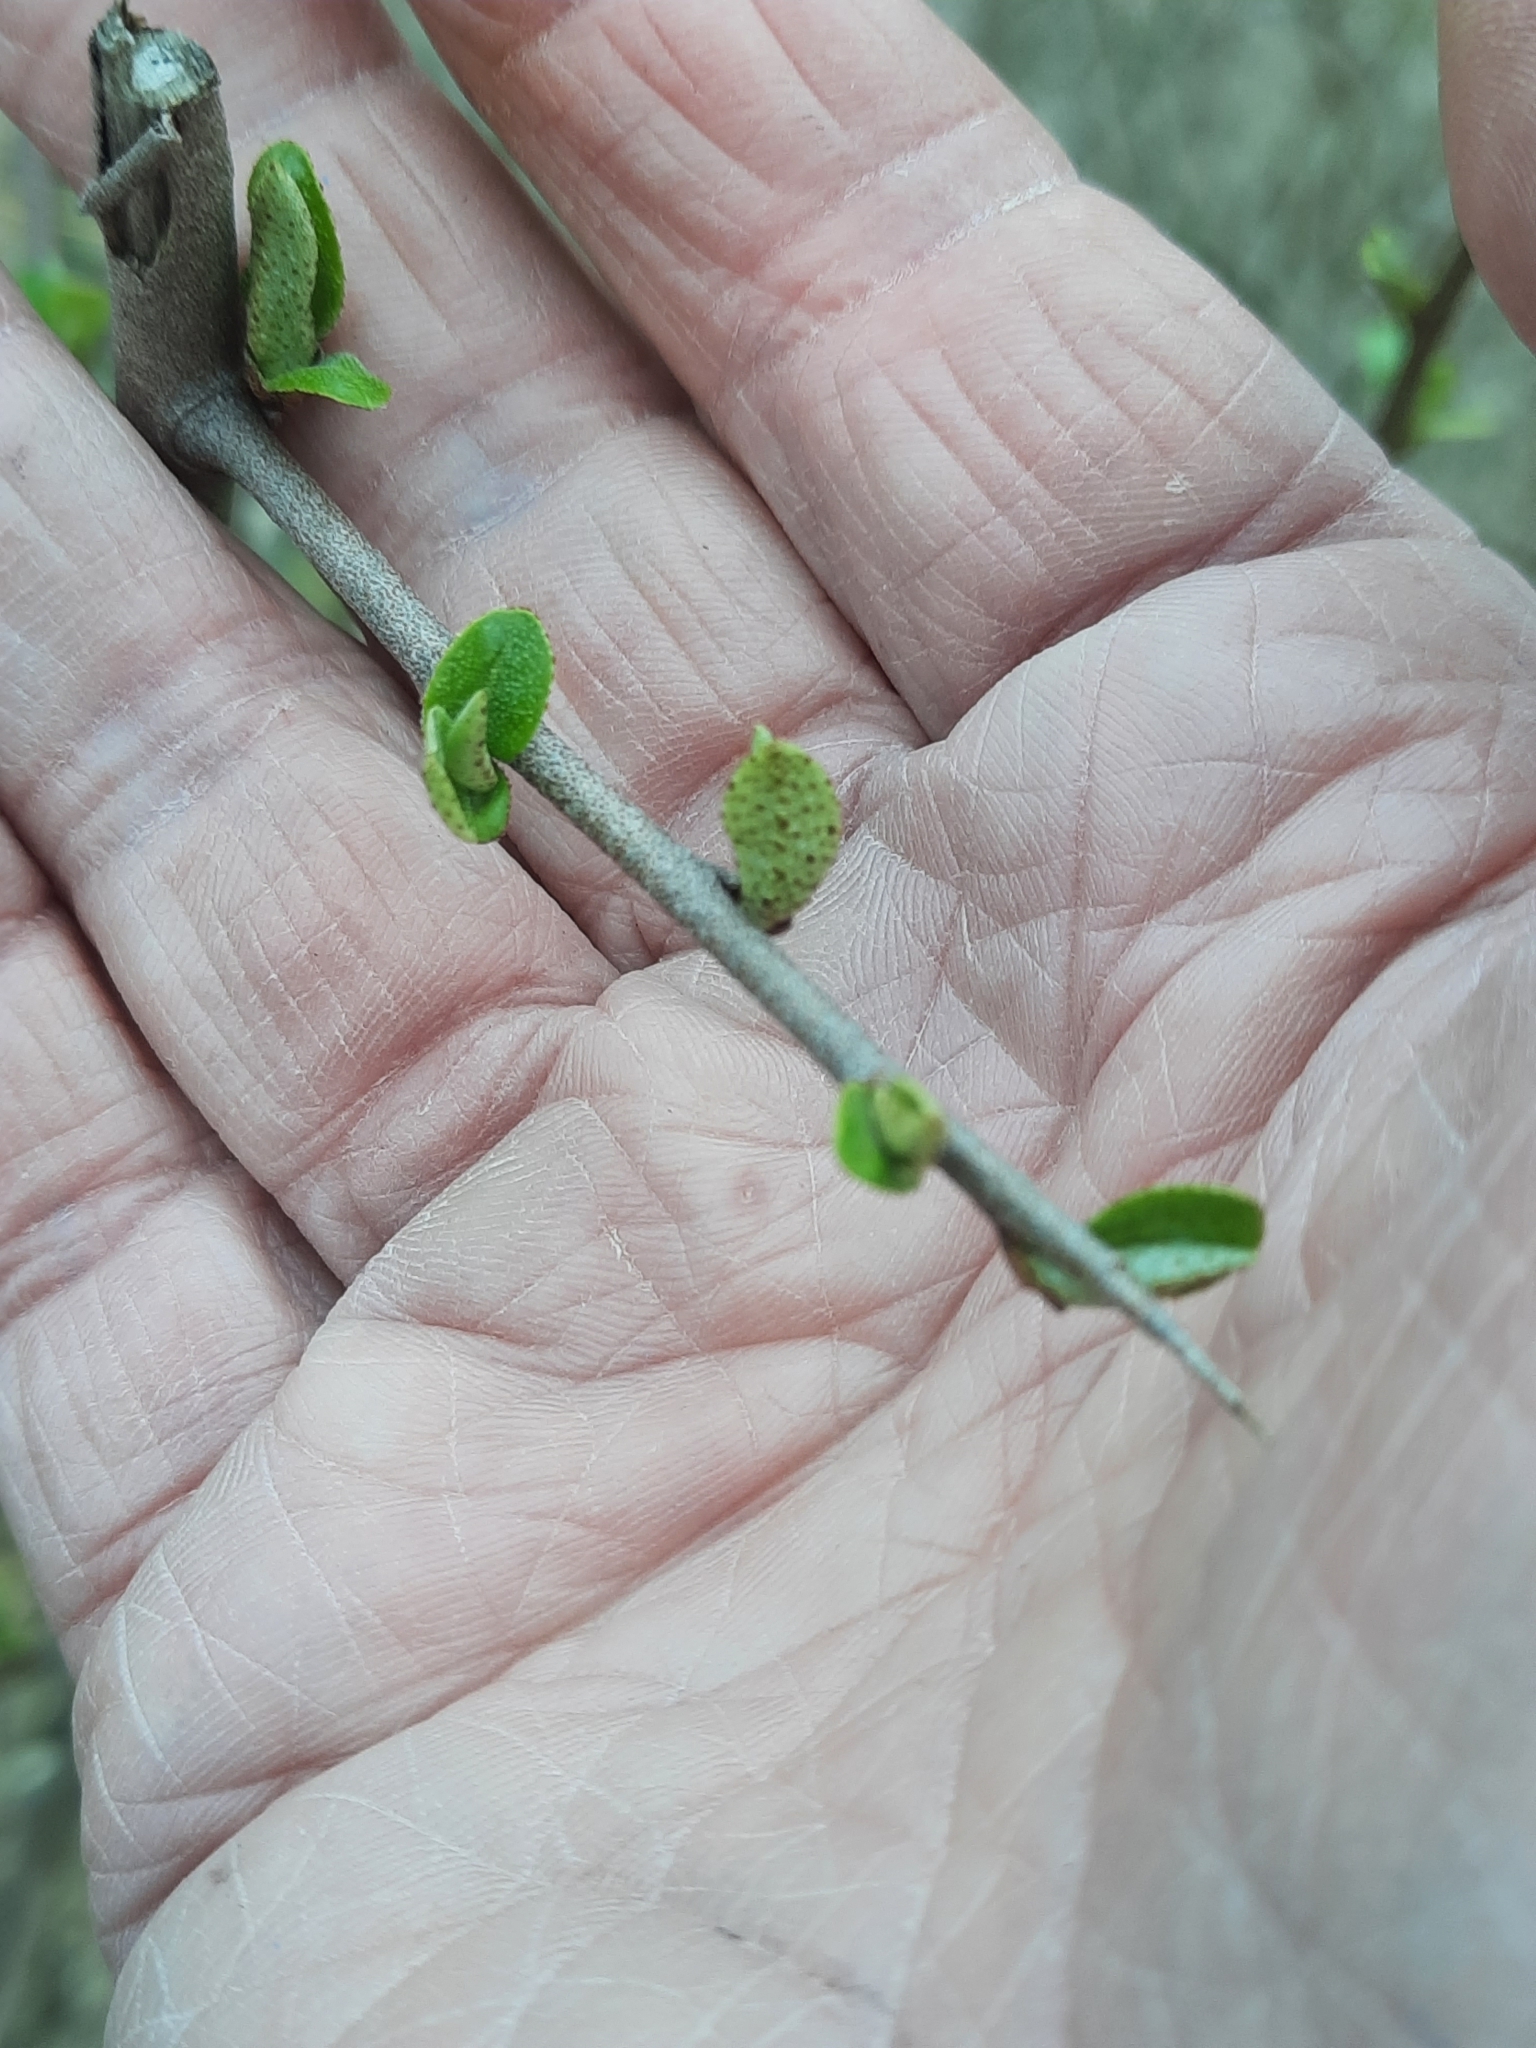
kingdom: Plantae
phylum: Tracheophyta
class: Magnoliopsida
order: Rosales
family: Elaeagnaceae
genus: Elaeagnus
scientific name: Elaeagnus umbellata
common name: Autumn olive
